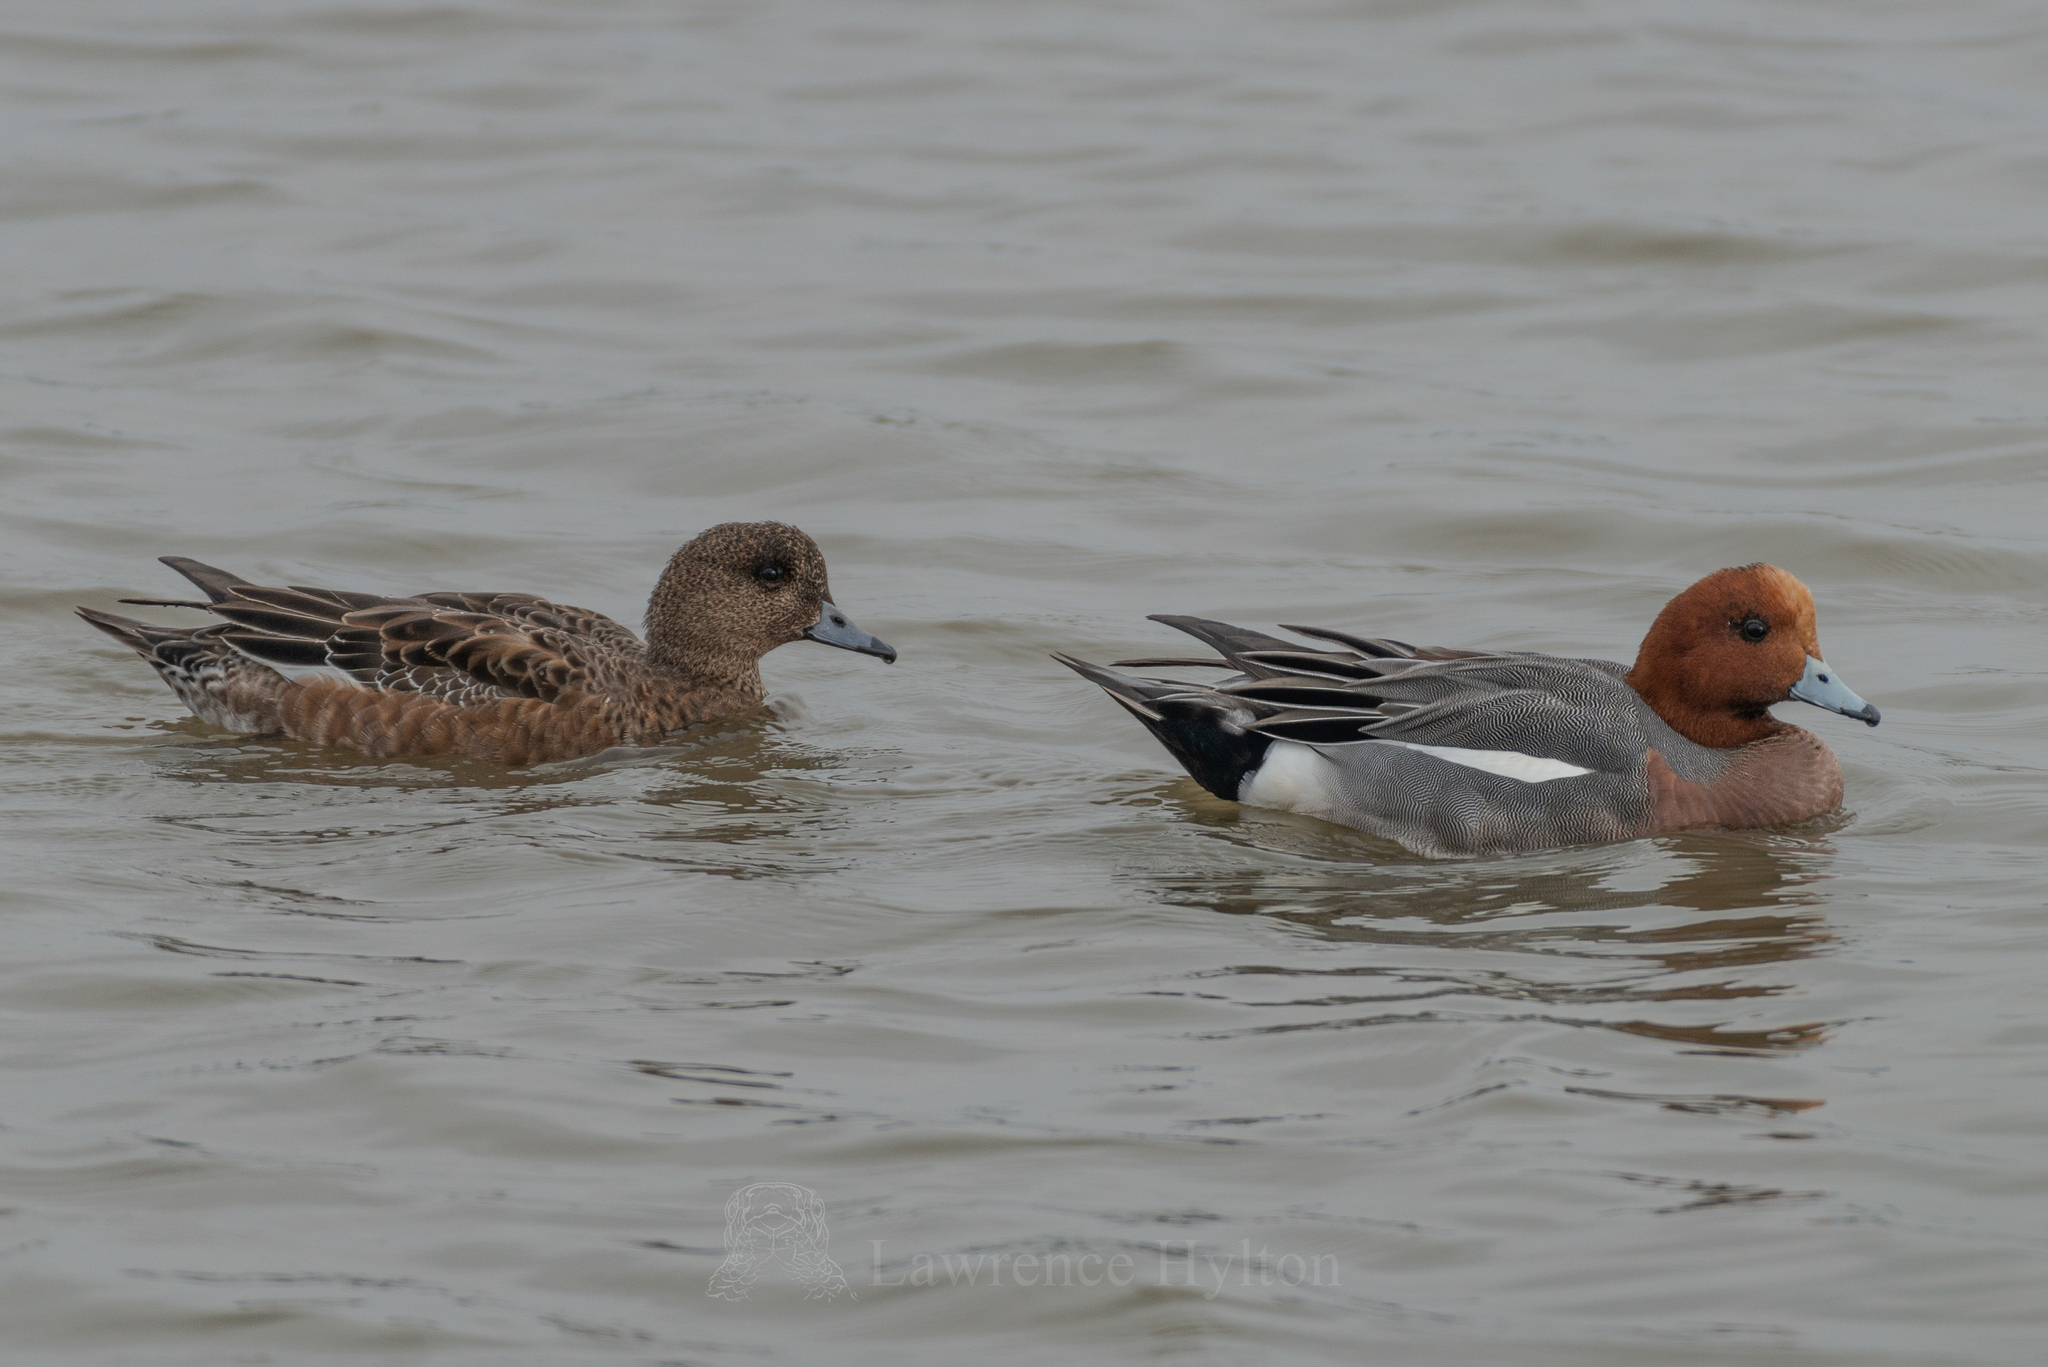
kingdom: Animalia
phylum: Chordata
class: Aves
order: Anseriformes
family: Anatidae
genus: Mareca
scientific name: Mareca penelope
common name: Eurasian wigeon
